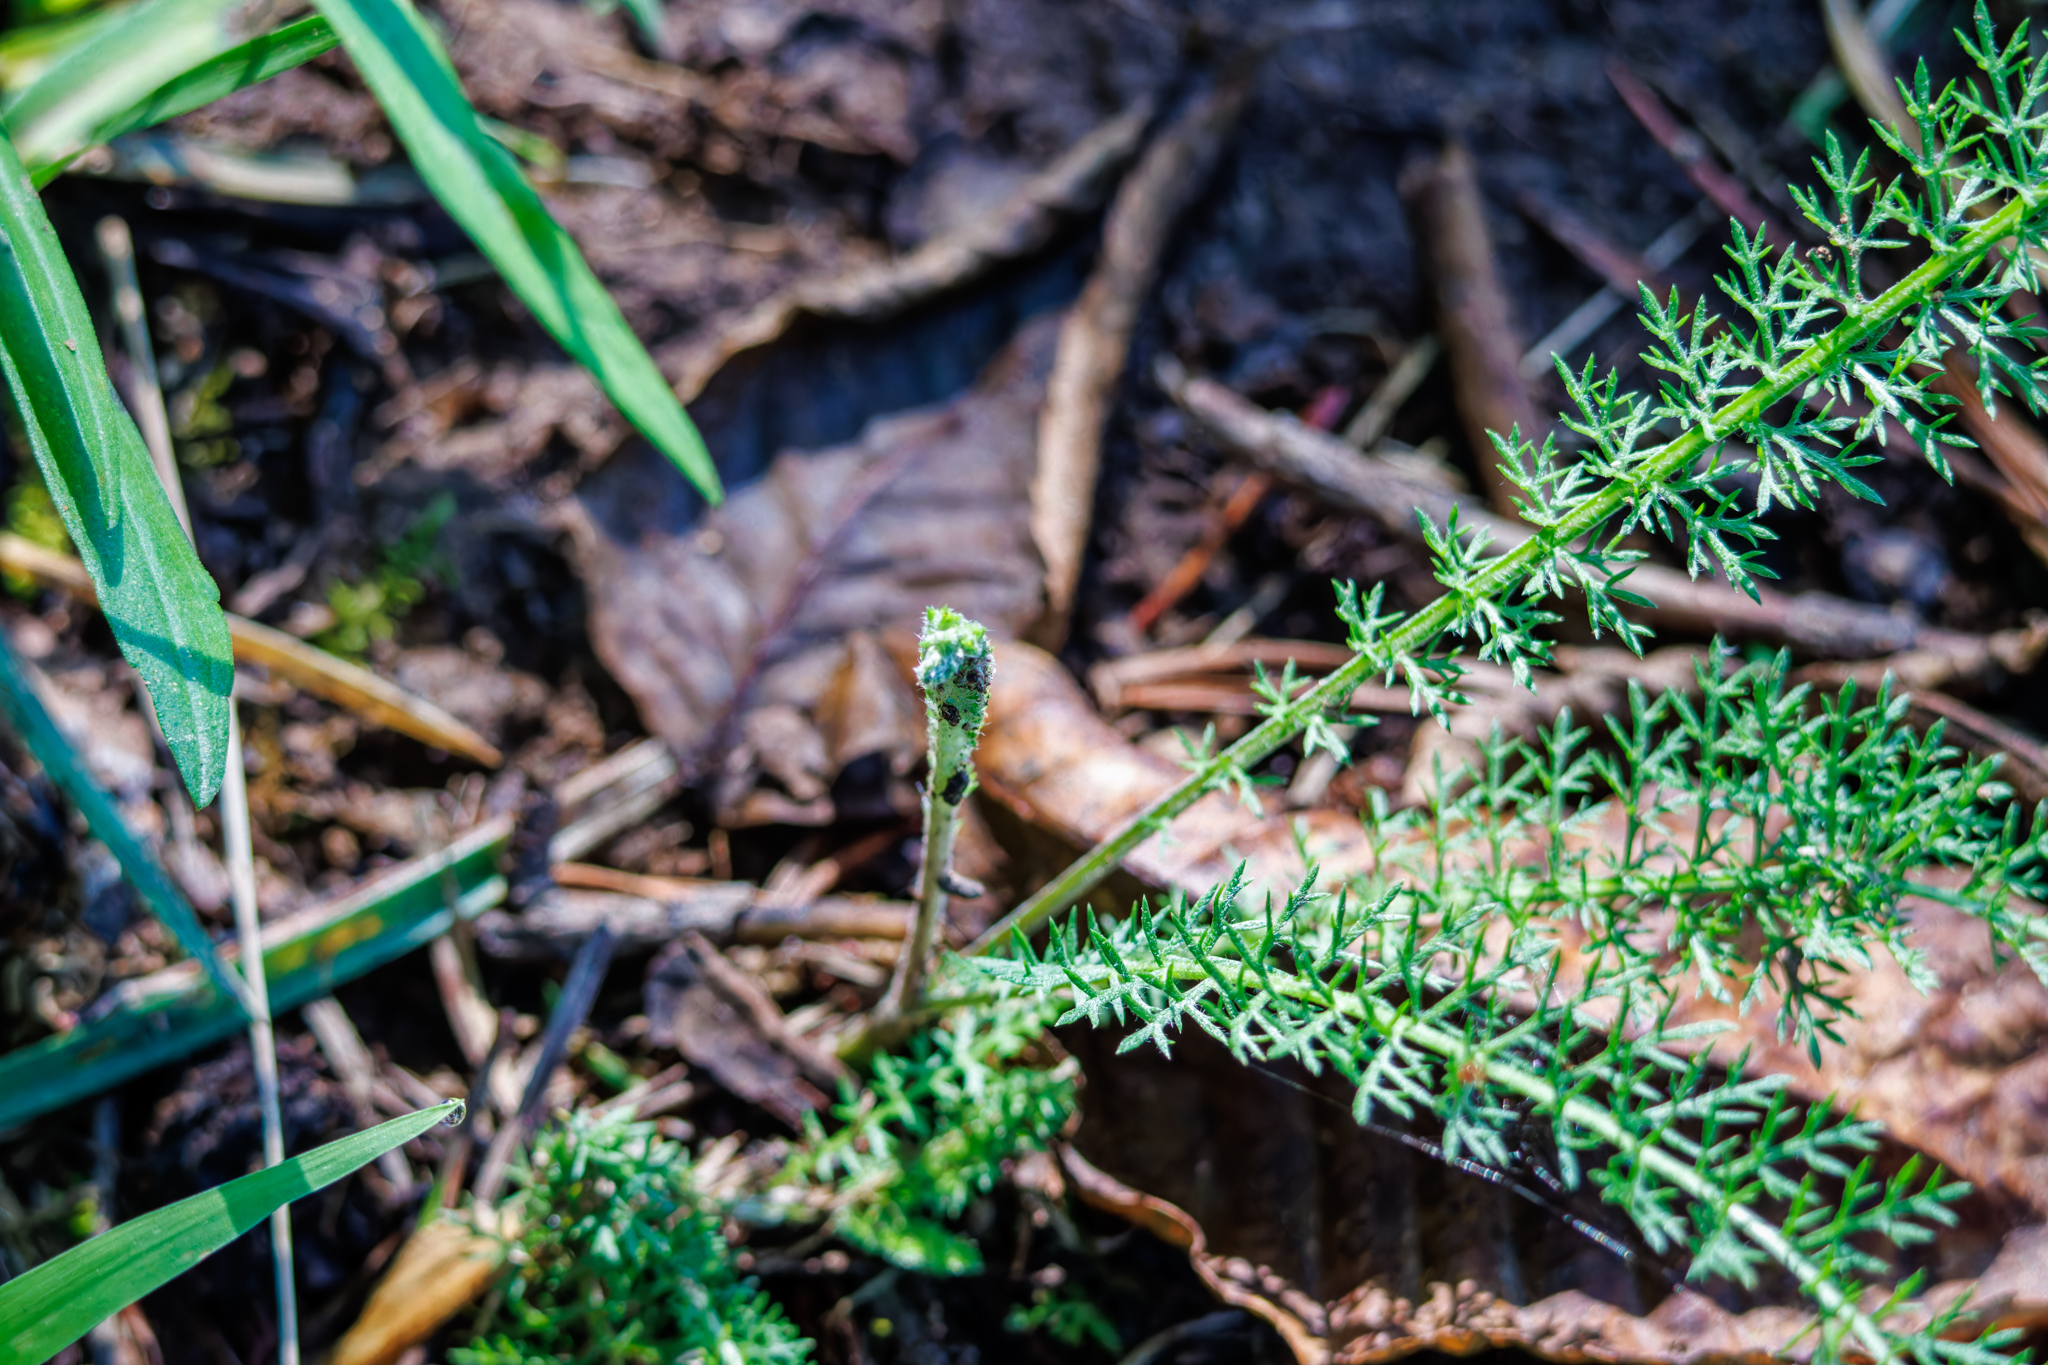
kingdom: Plantae
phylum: Tracheophyta
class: Magnoliopsida
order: Asterales
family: Asteraceae
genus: Achillea
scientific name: Achillea millefolium
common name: Yarrow
